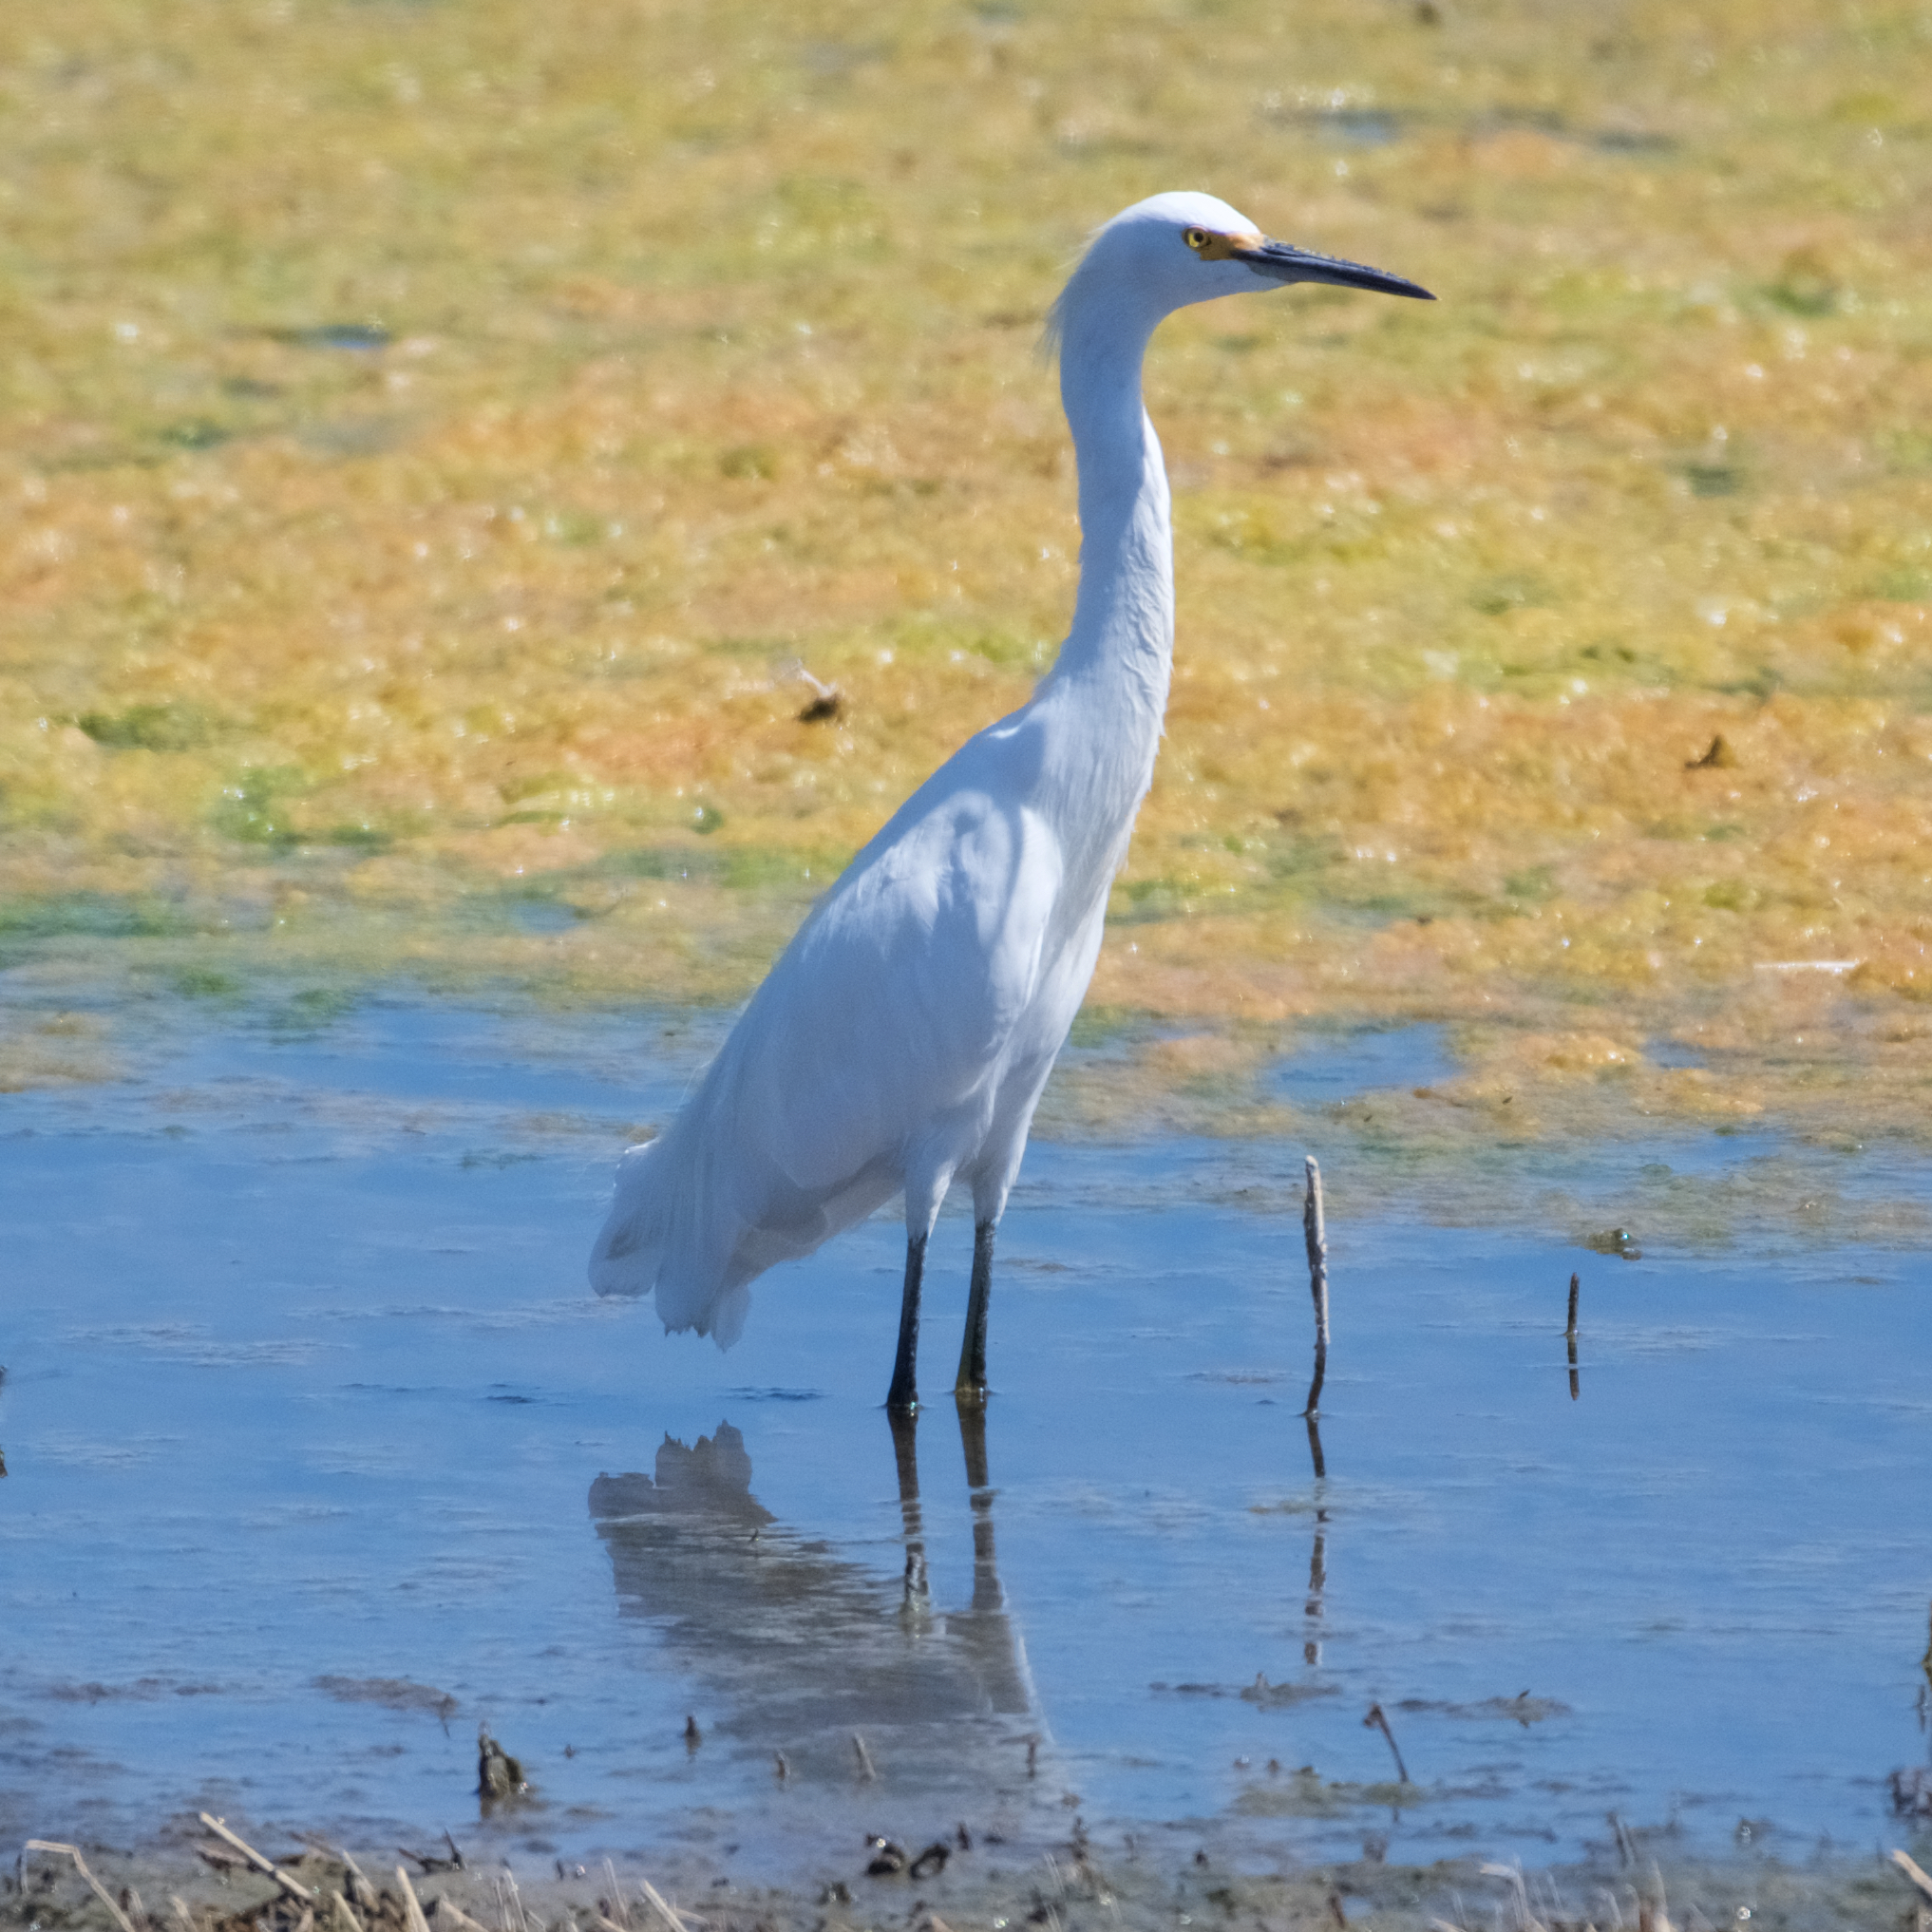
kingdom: Animalia
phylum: Chordata
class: Aves
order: Pelecaniformes
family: Ardeidae
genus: Egretta
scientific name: Egretta thula
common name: Snowy egret
